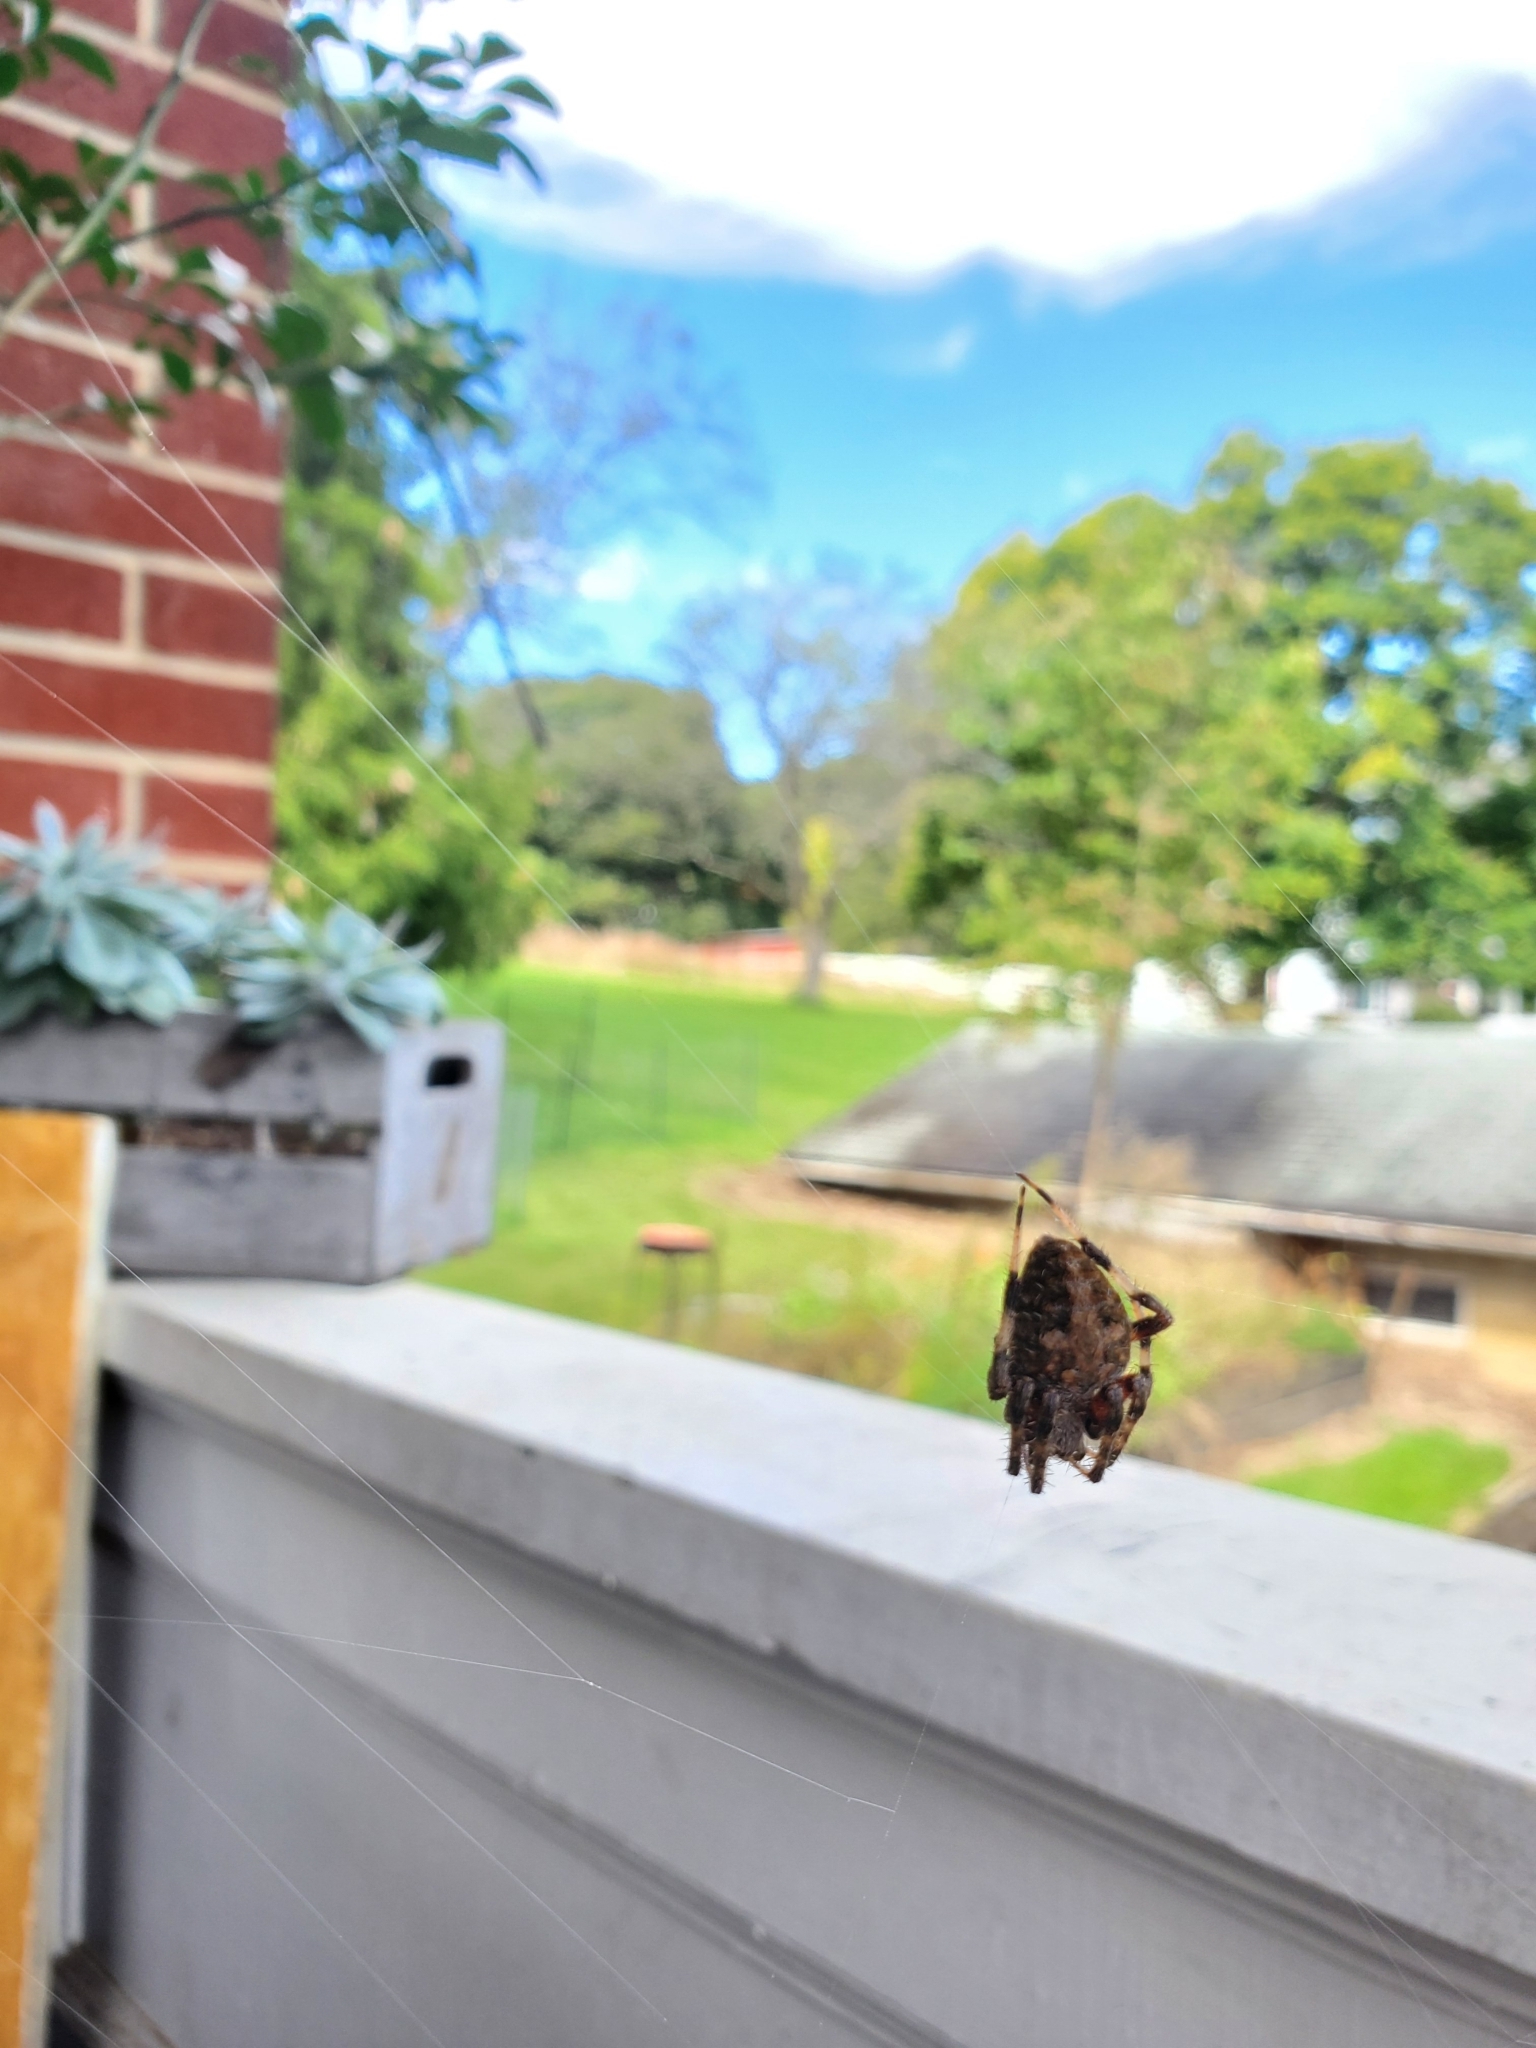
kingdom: Animalia
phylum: Arthropoda
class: Arachnida
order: Araneae
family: Araneidae
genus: Neoscona
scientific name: Neoscona crucifera
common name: Spotted orbweaver
